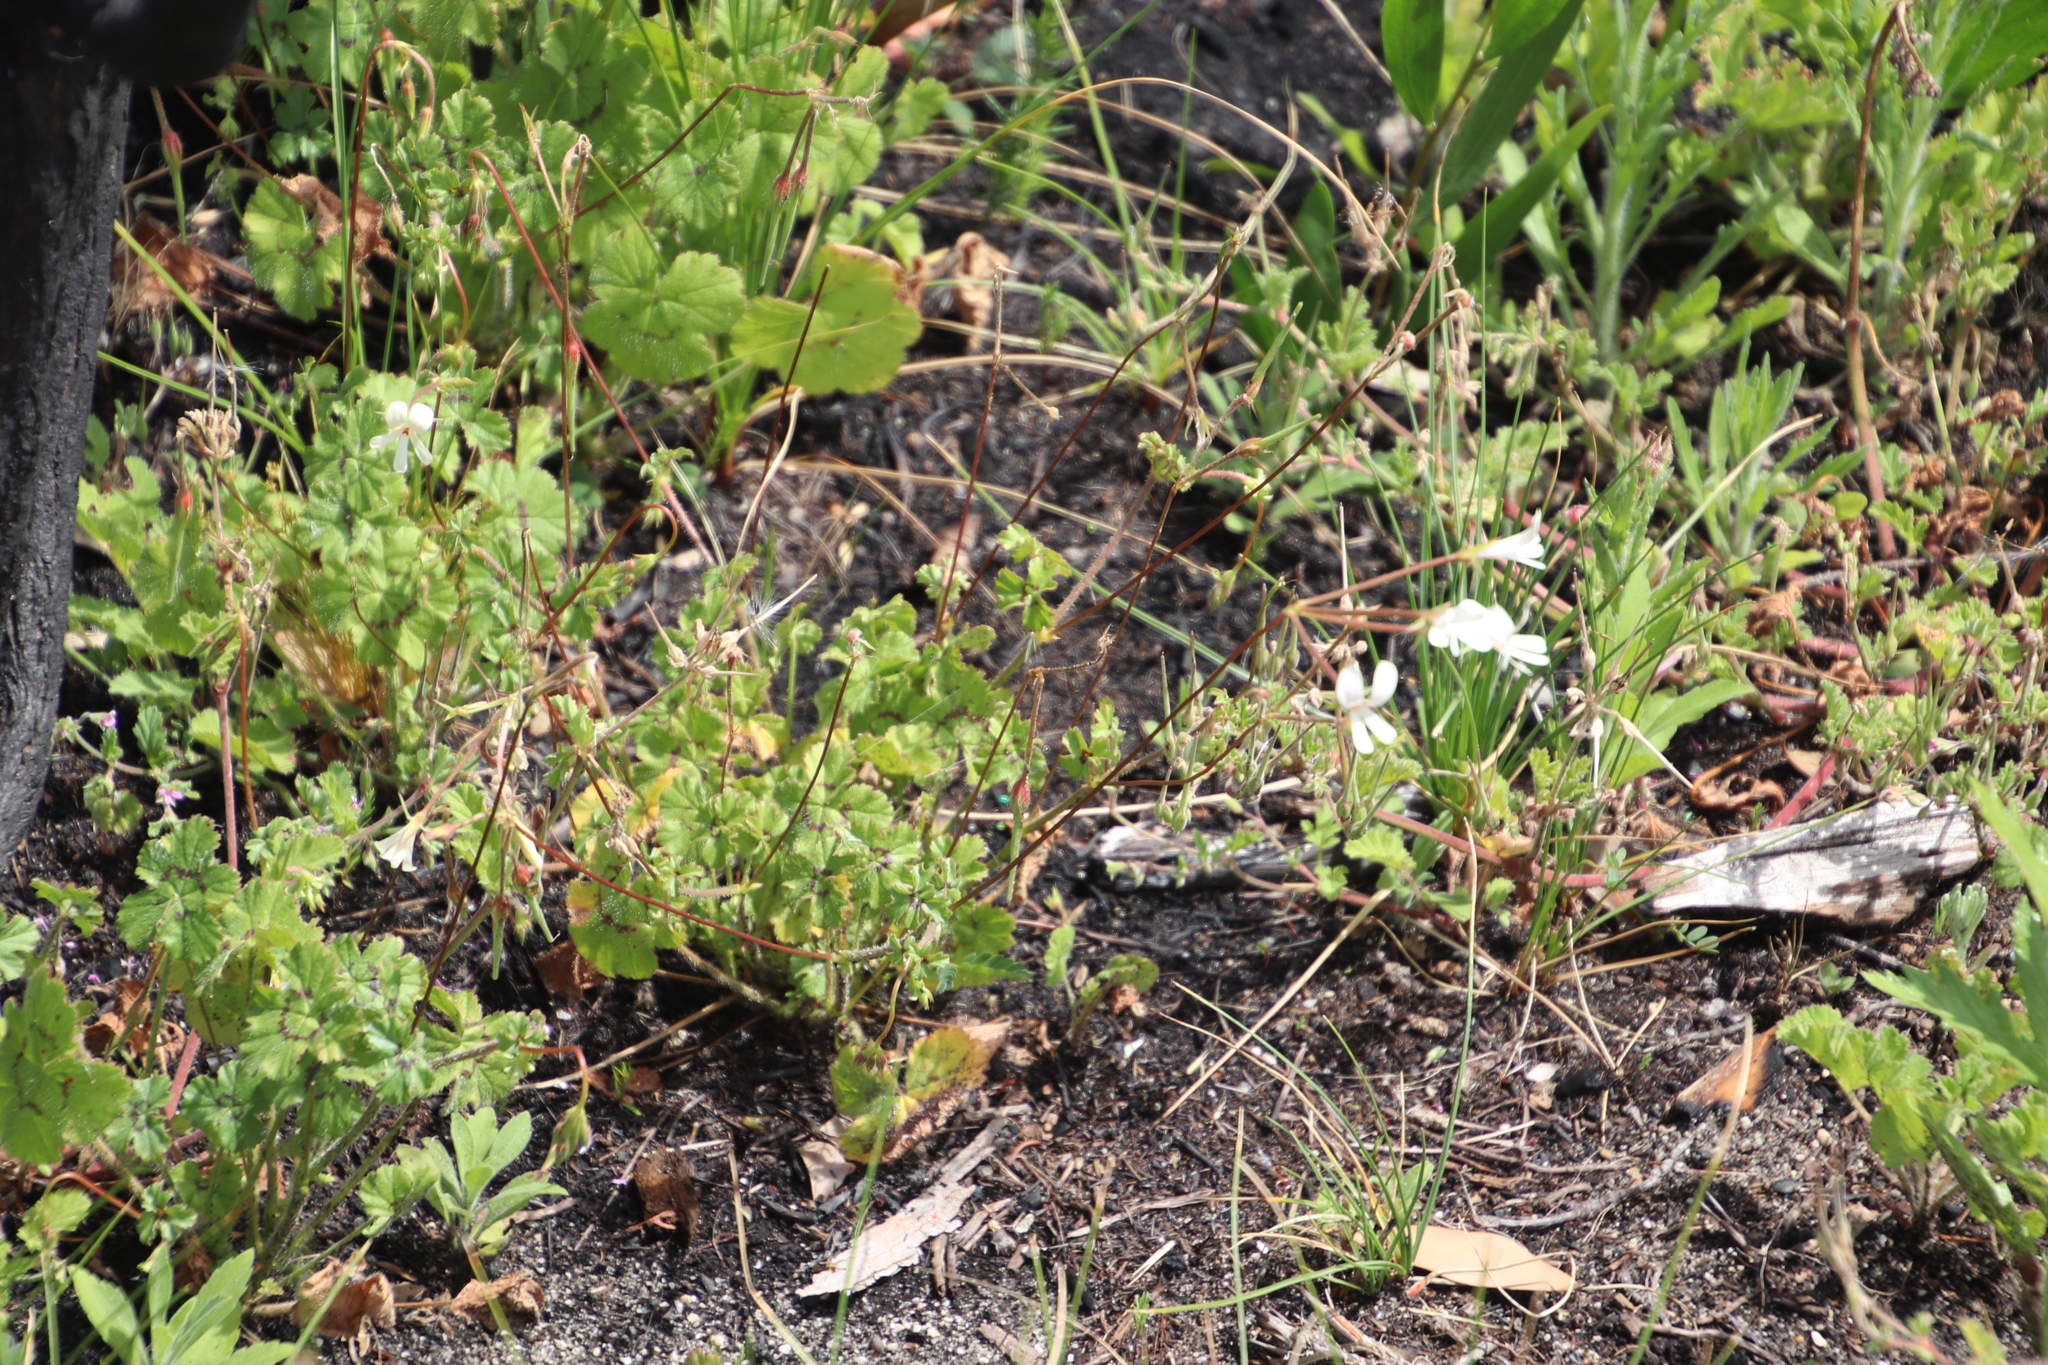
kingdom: Plantae
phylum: Tracheophyta
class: Magnoliopsida
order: Geraniales
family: Geraniaceae
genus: Pelargonium
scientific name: Pelargonium elongatum
